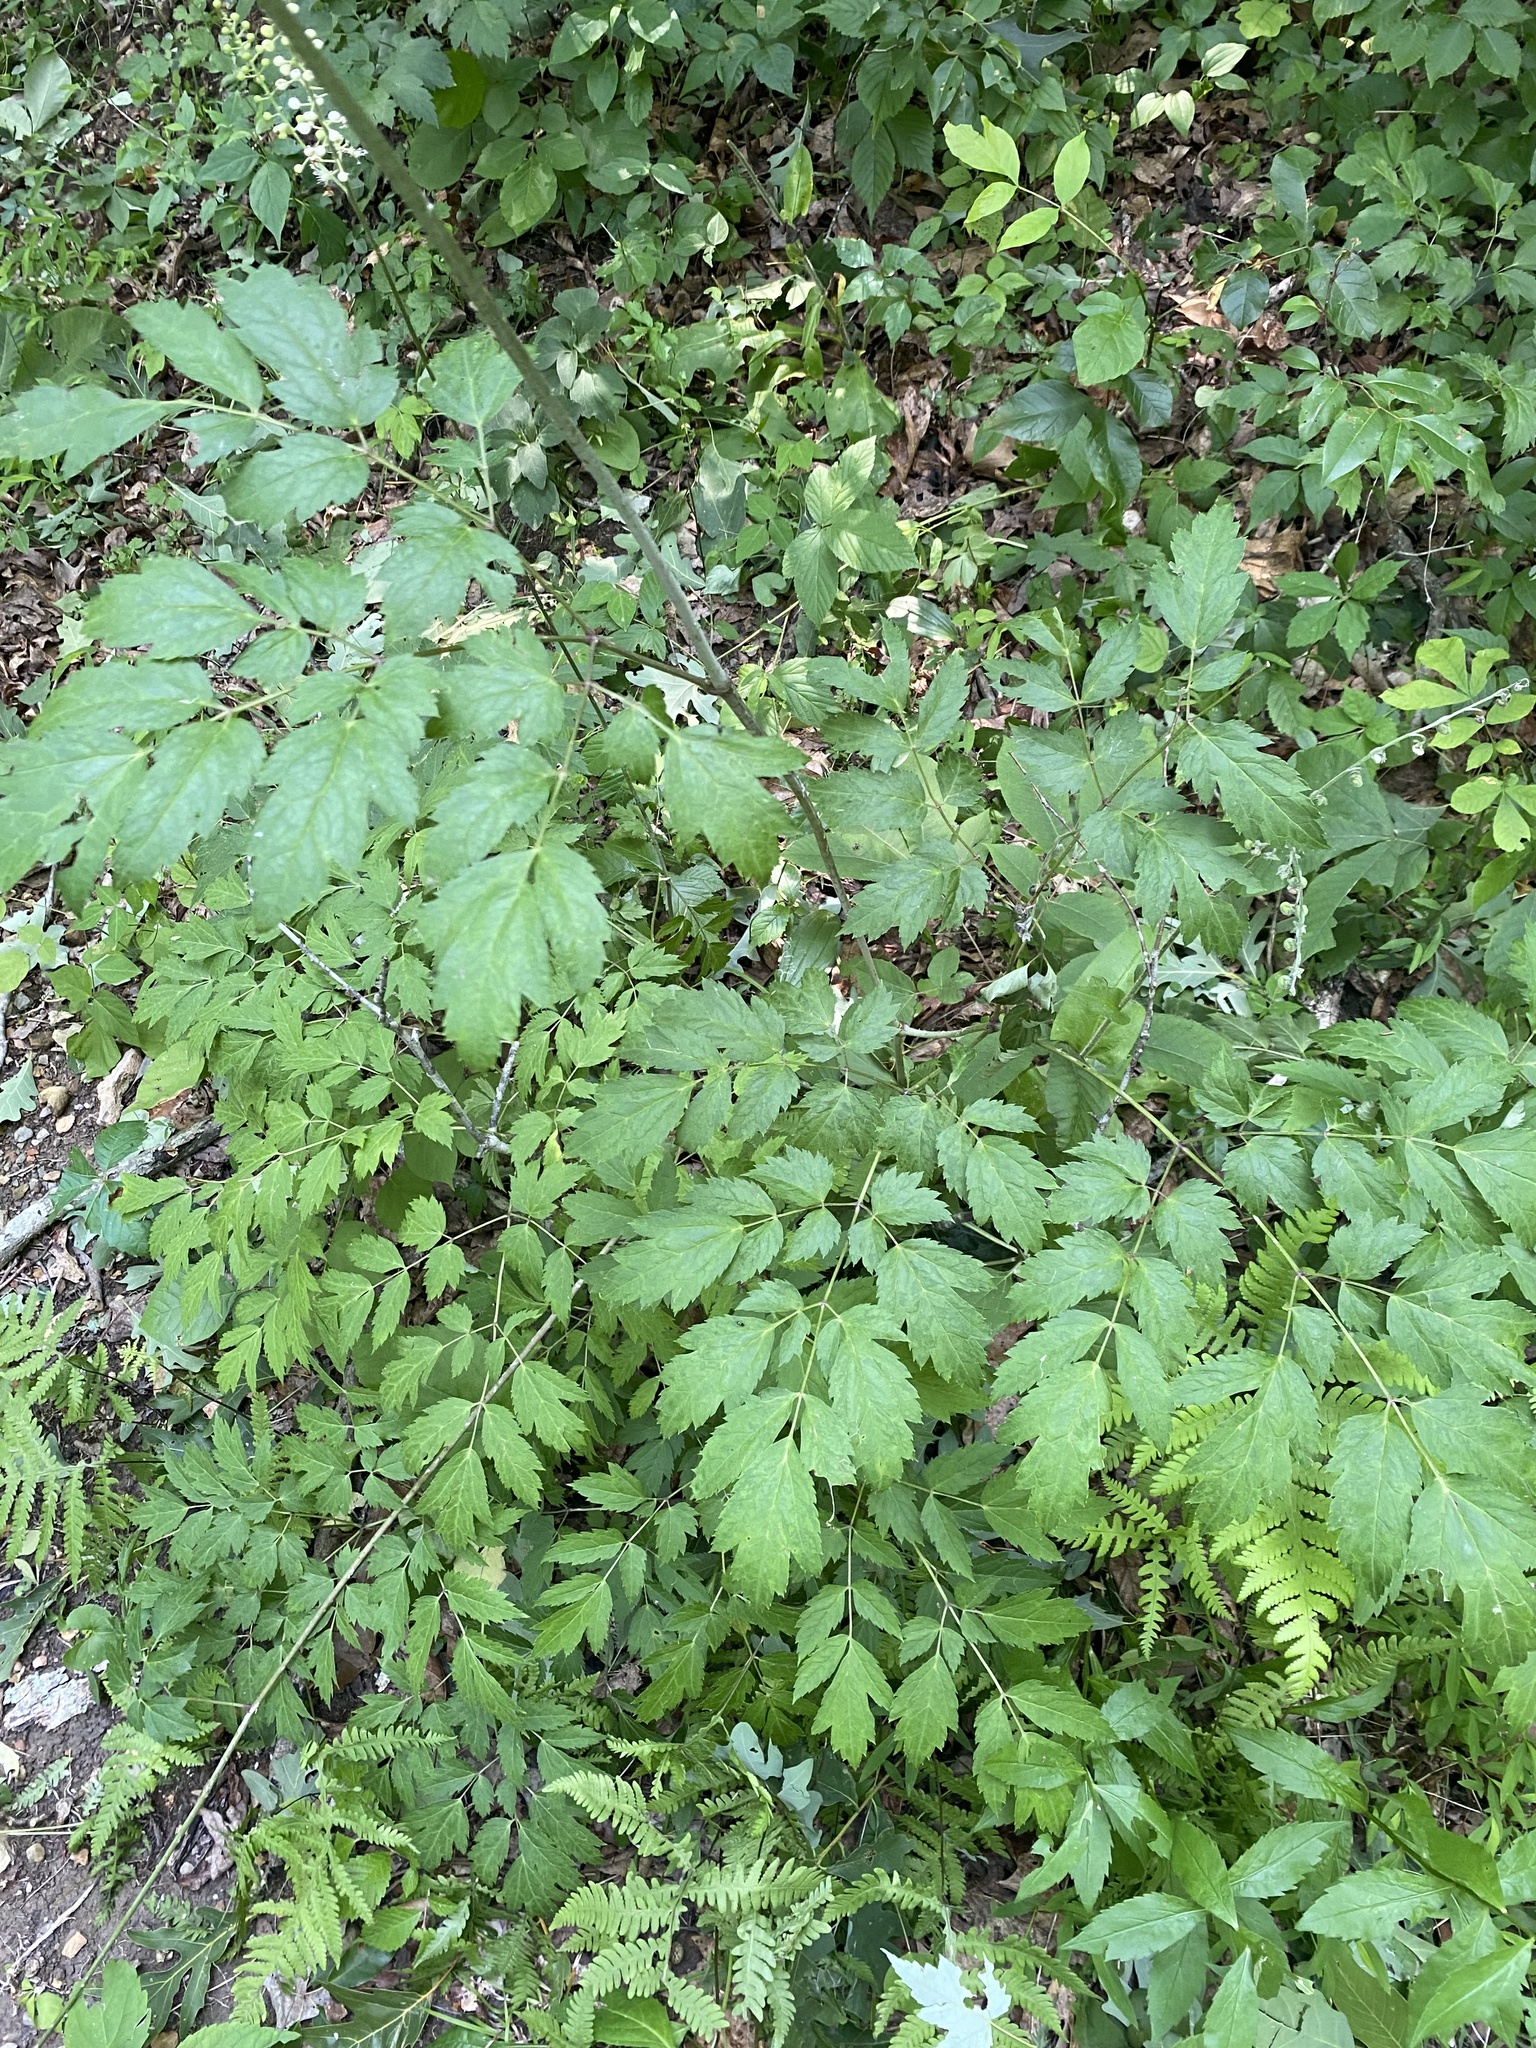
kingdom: Plantae
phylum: Tracheophyta
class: Magnoliopsida
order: Ranunculales
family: Ranunculaceae
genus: Actaea
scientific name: Actaea racemosa
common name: Black cohosh
